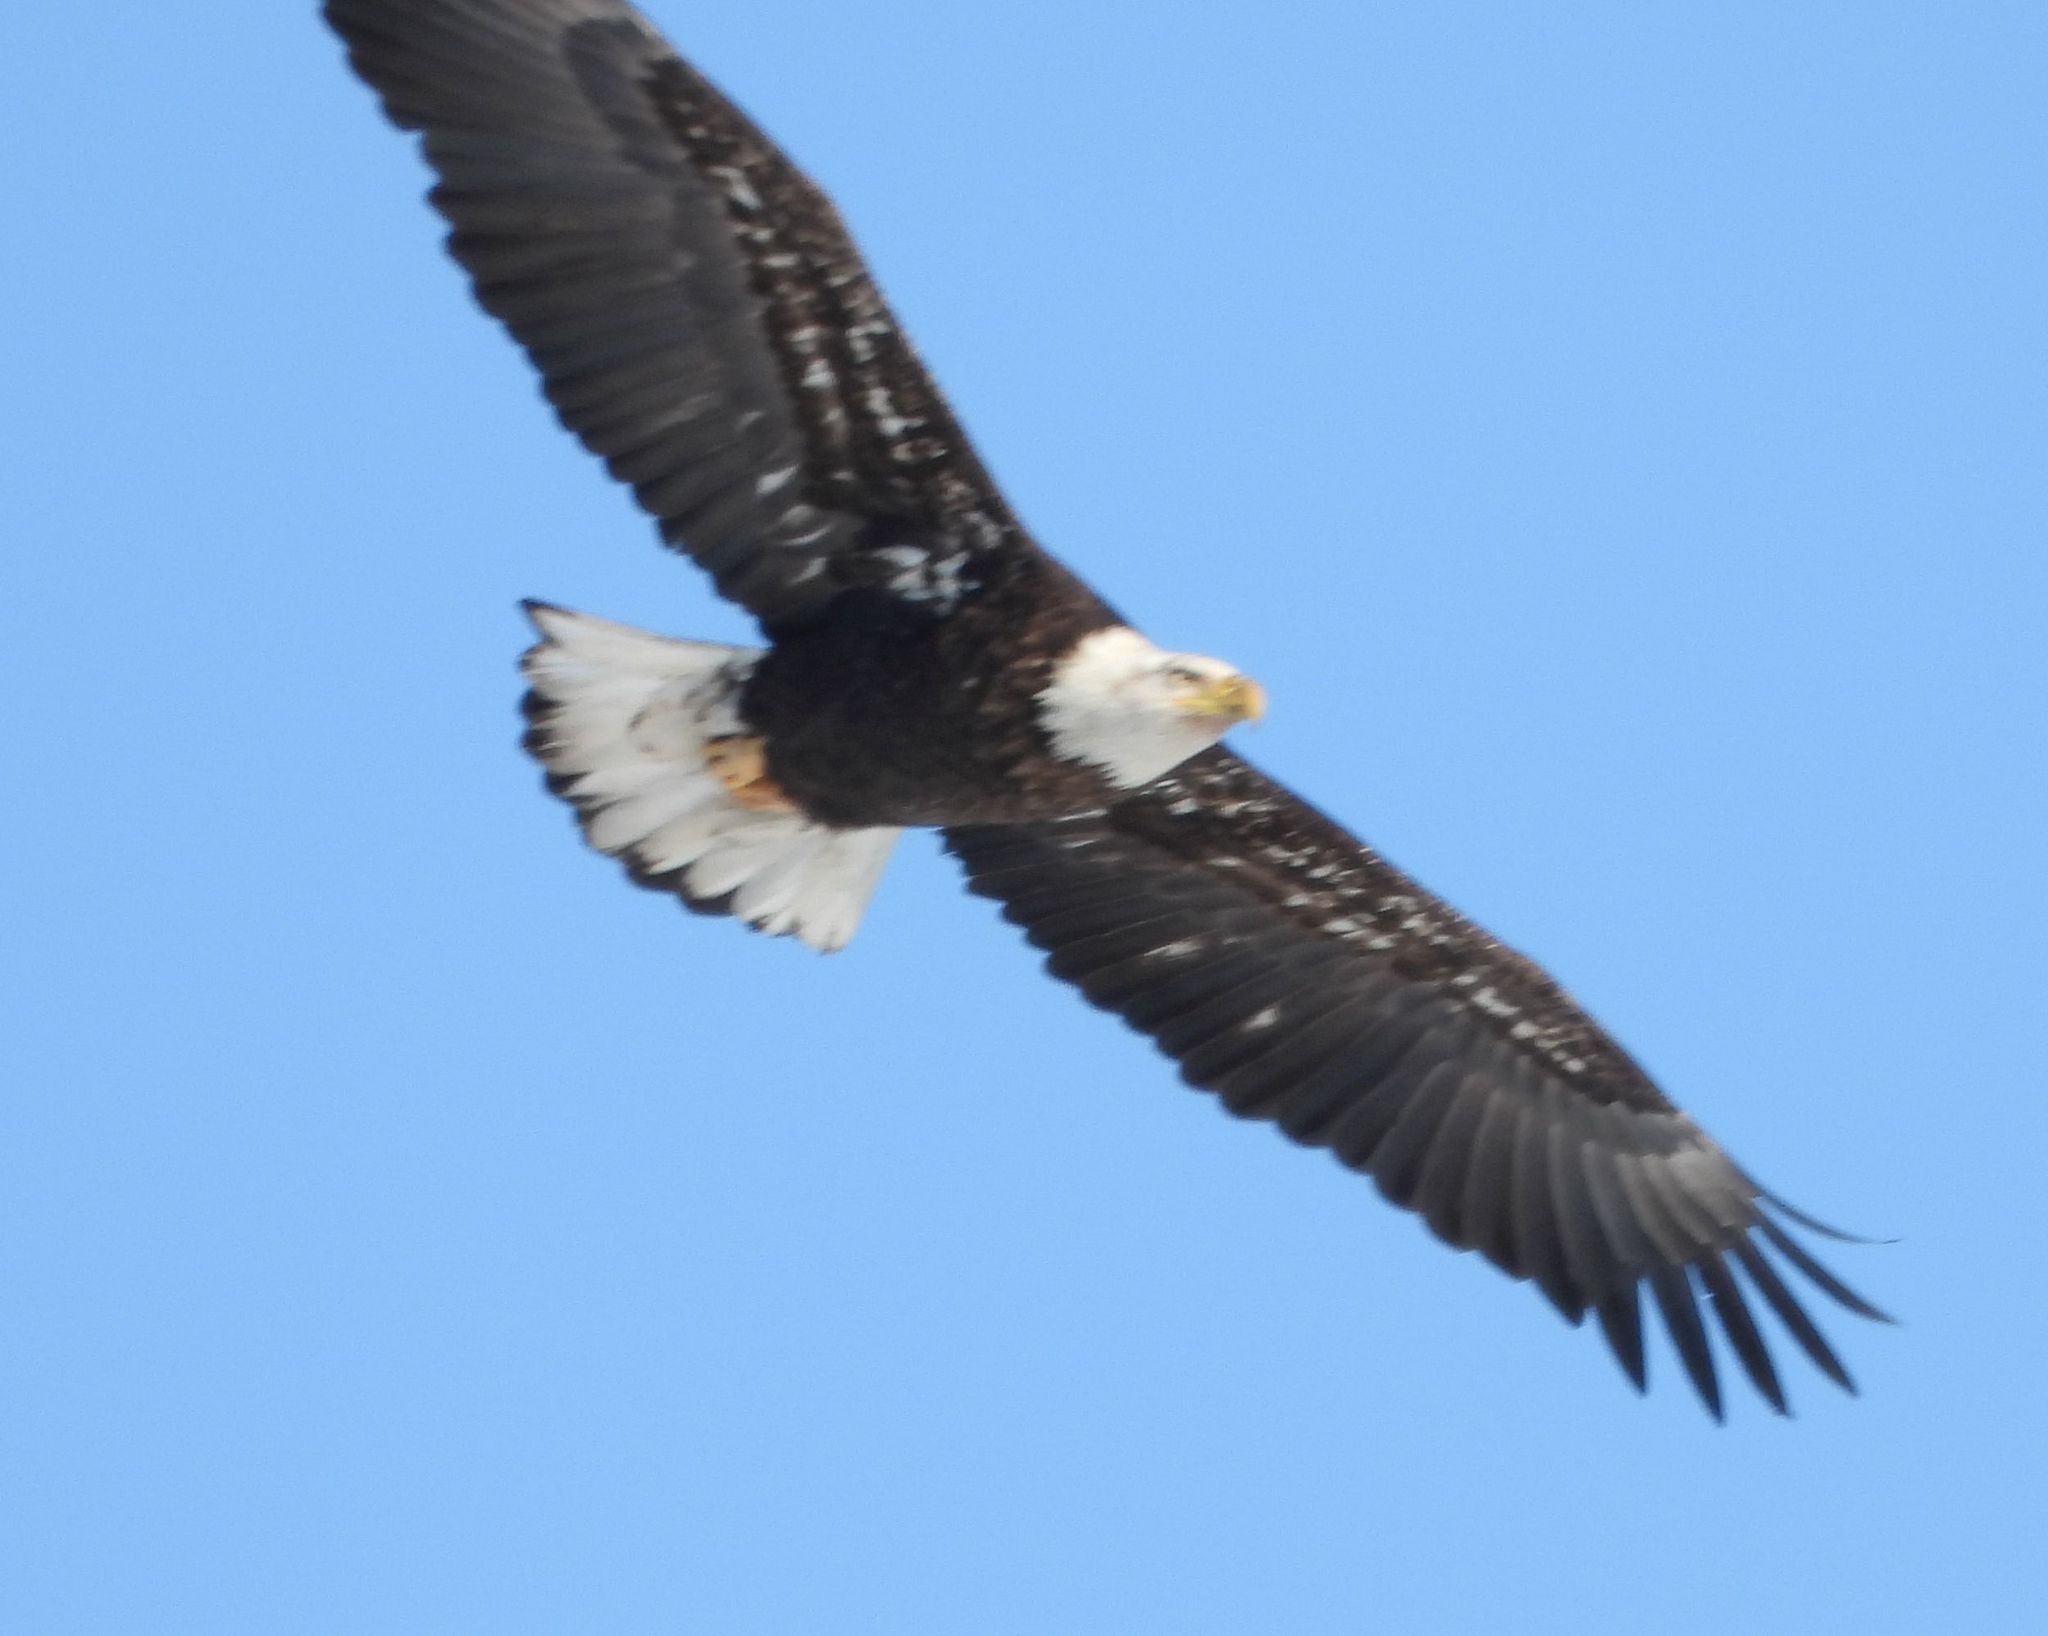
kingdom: Animalia
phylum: Chordata
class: Aves
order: Accipitriformes
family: Accipitridae
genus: Haliaeetus
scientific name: Haliaeetus leucocephalus
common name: Bald eagle
